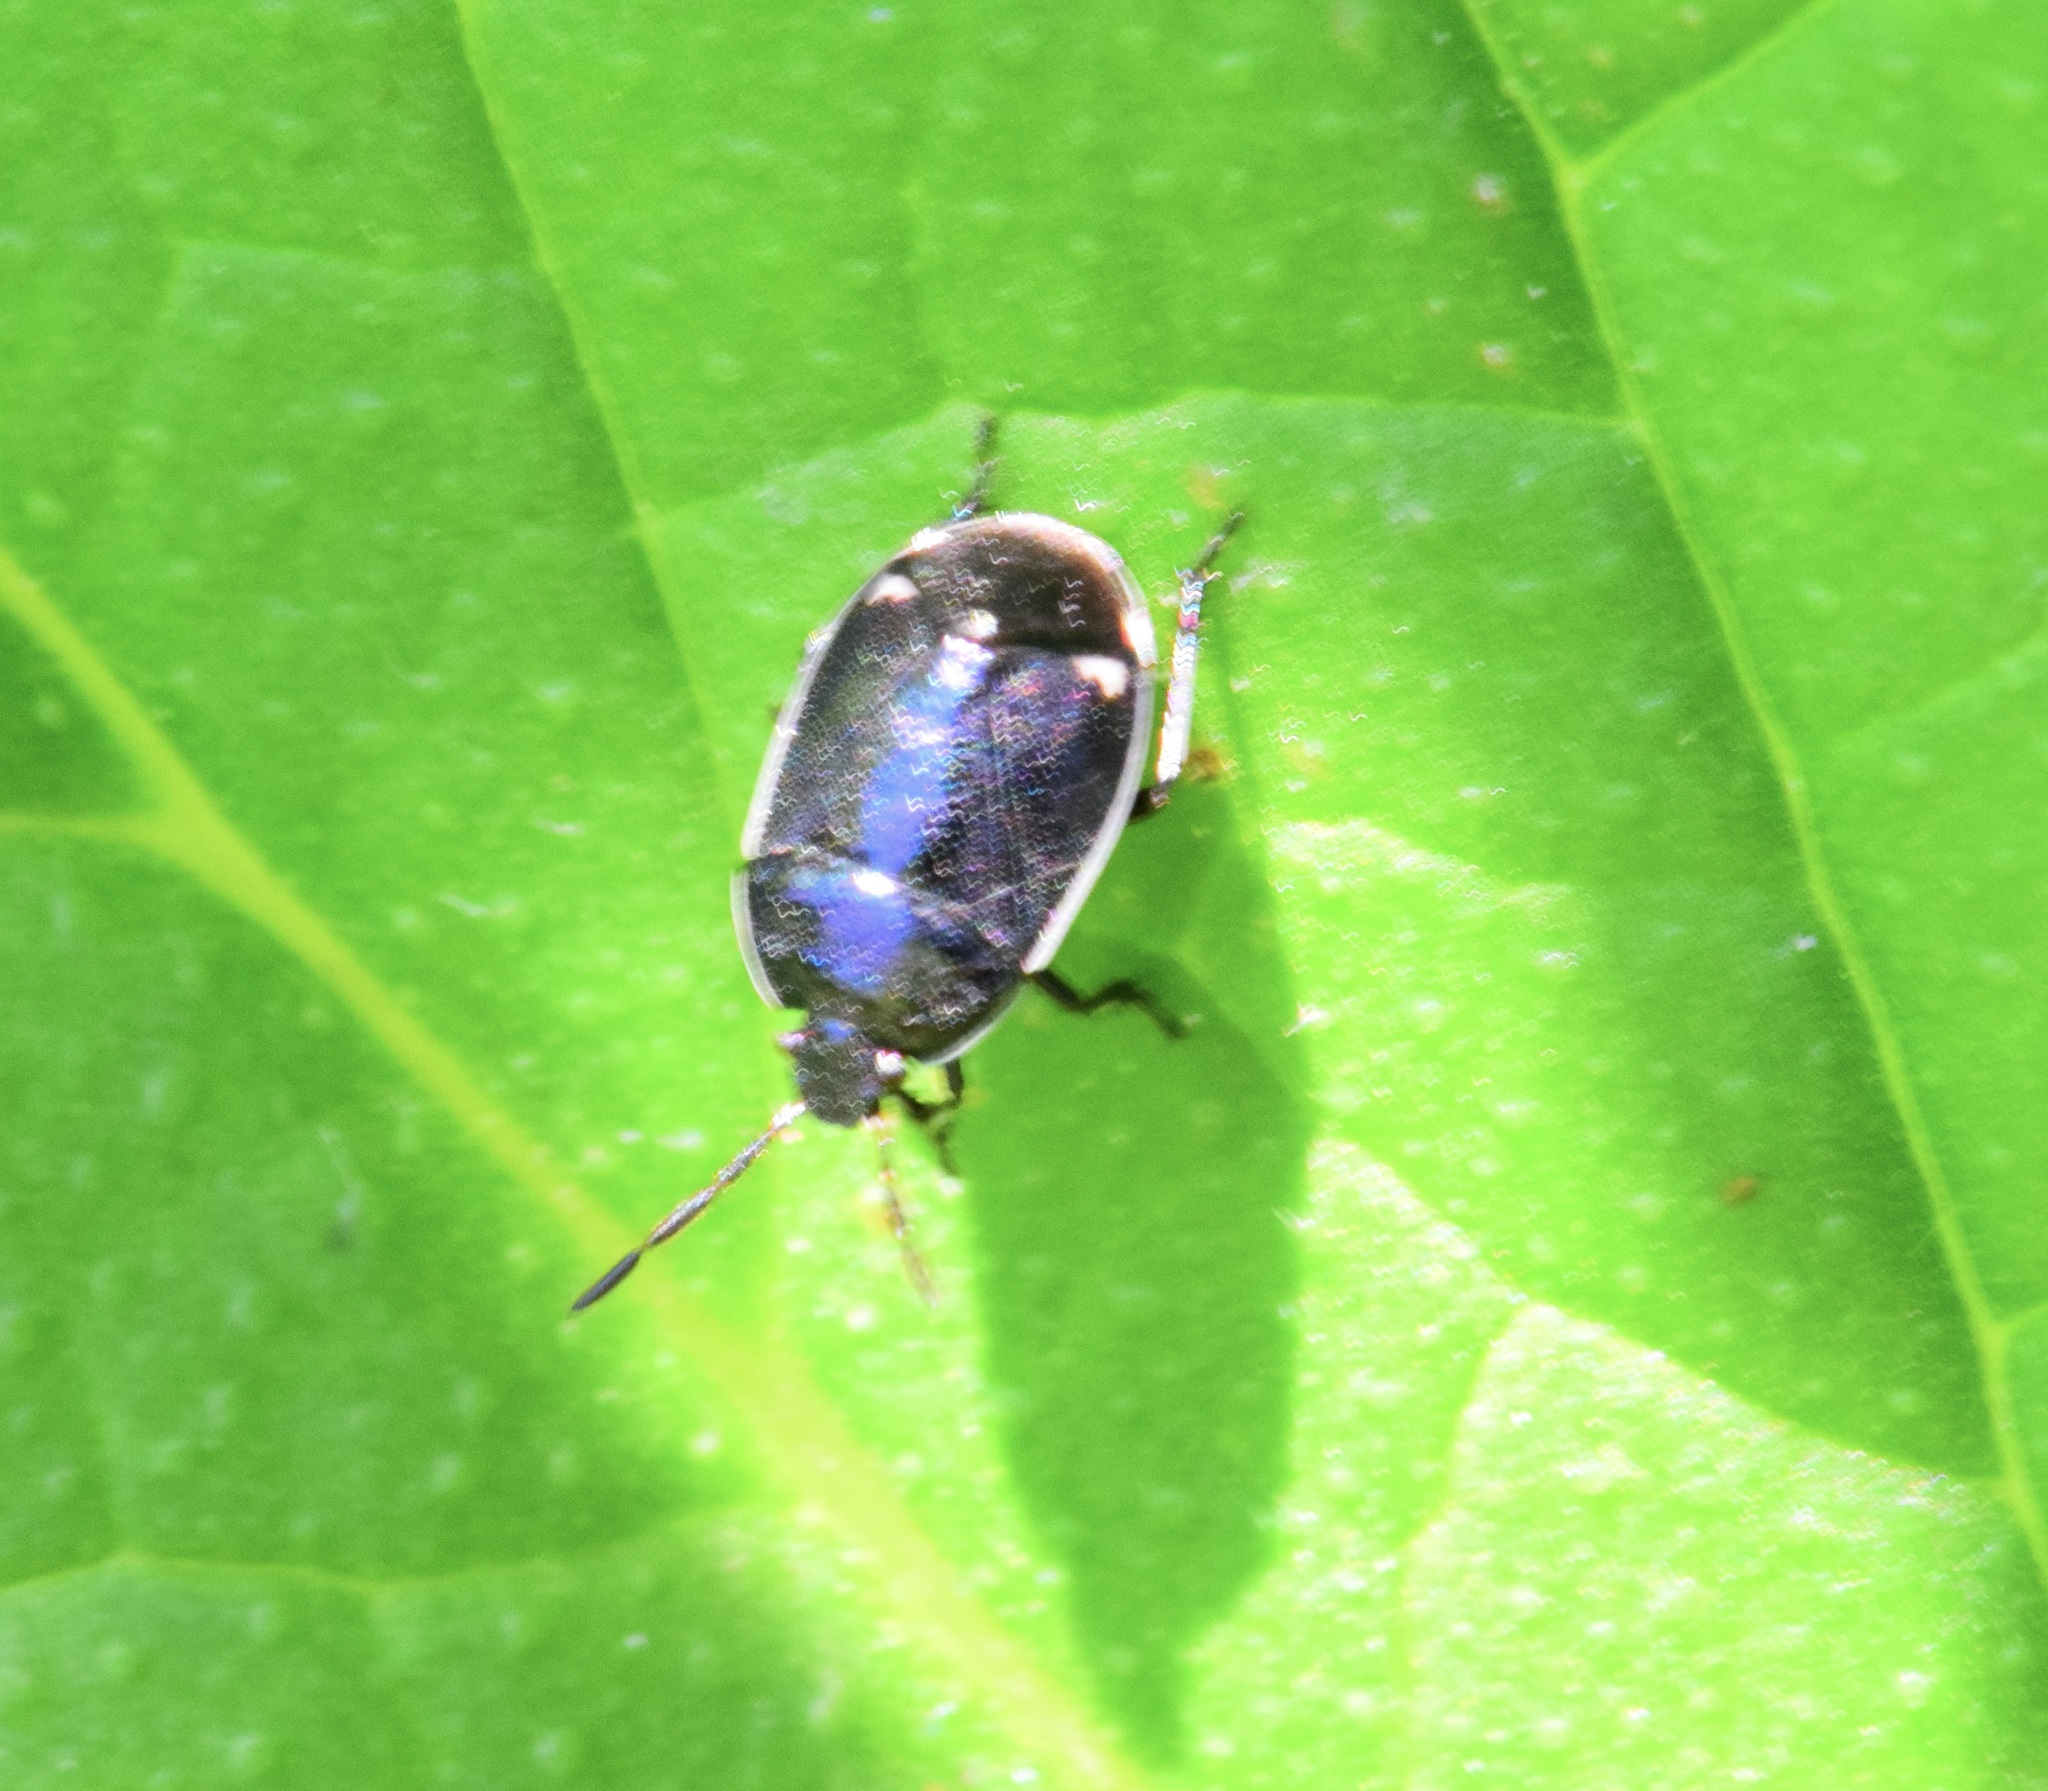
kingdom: Animalia
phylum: Arthropoda
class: Insecta
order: Hemiptera
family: Cydnidae
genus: Sehirus
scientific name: Sehirus cinctus
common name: White-margined burrower bug
